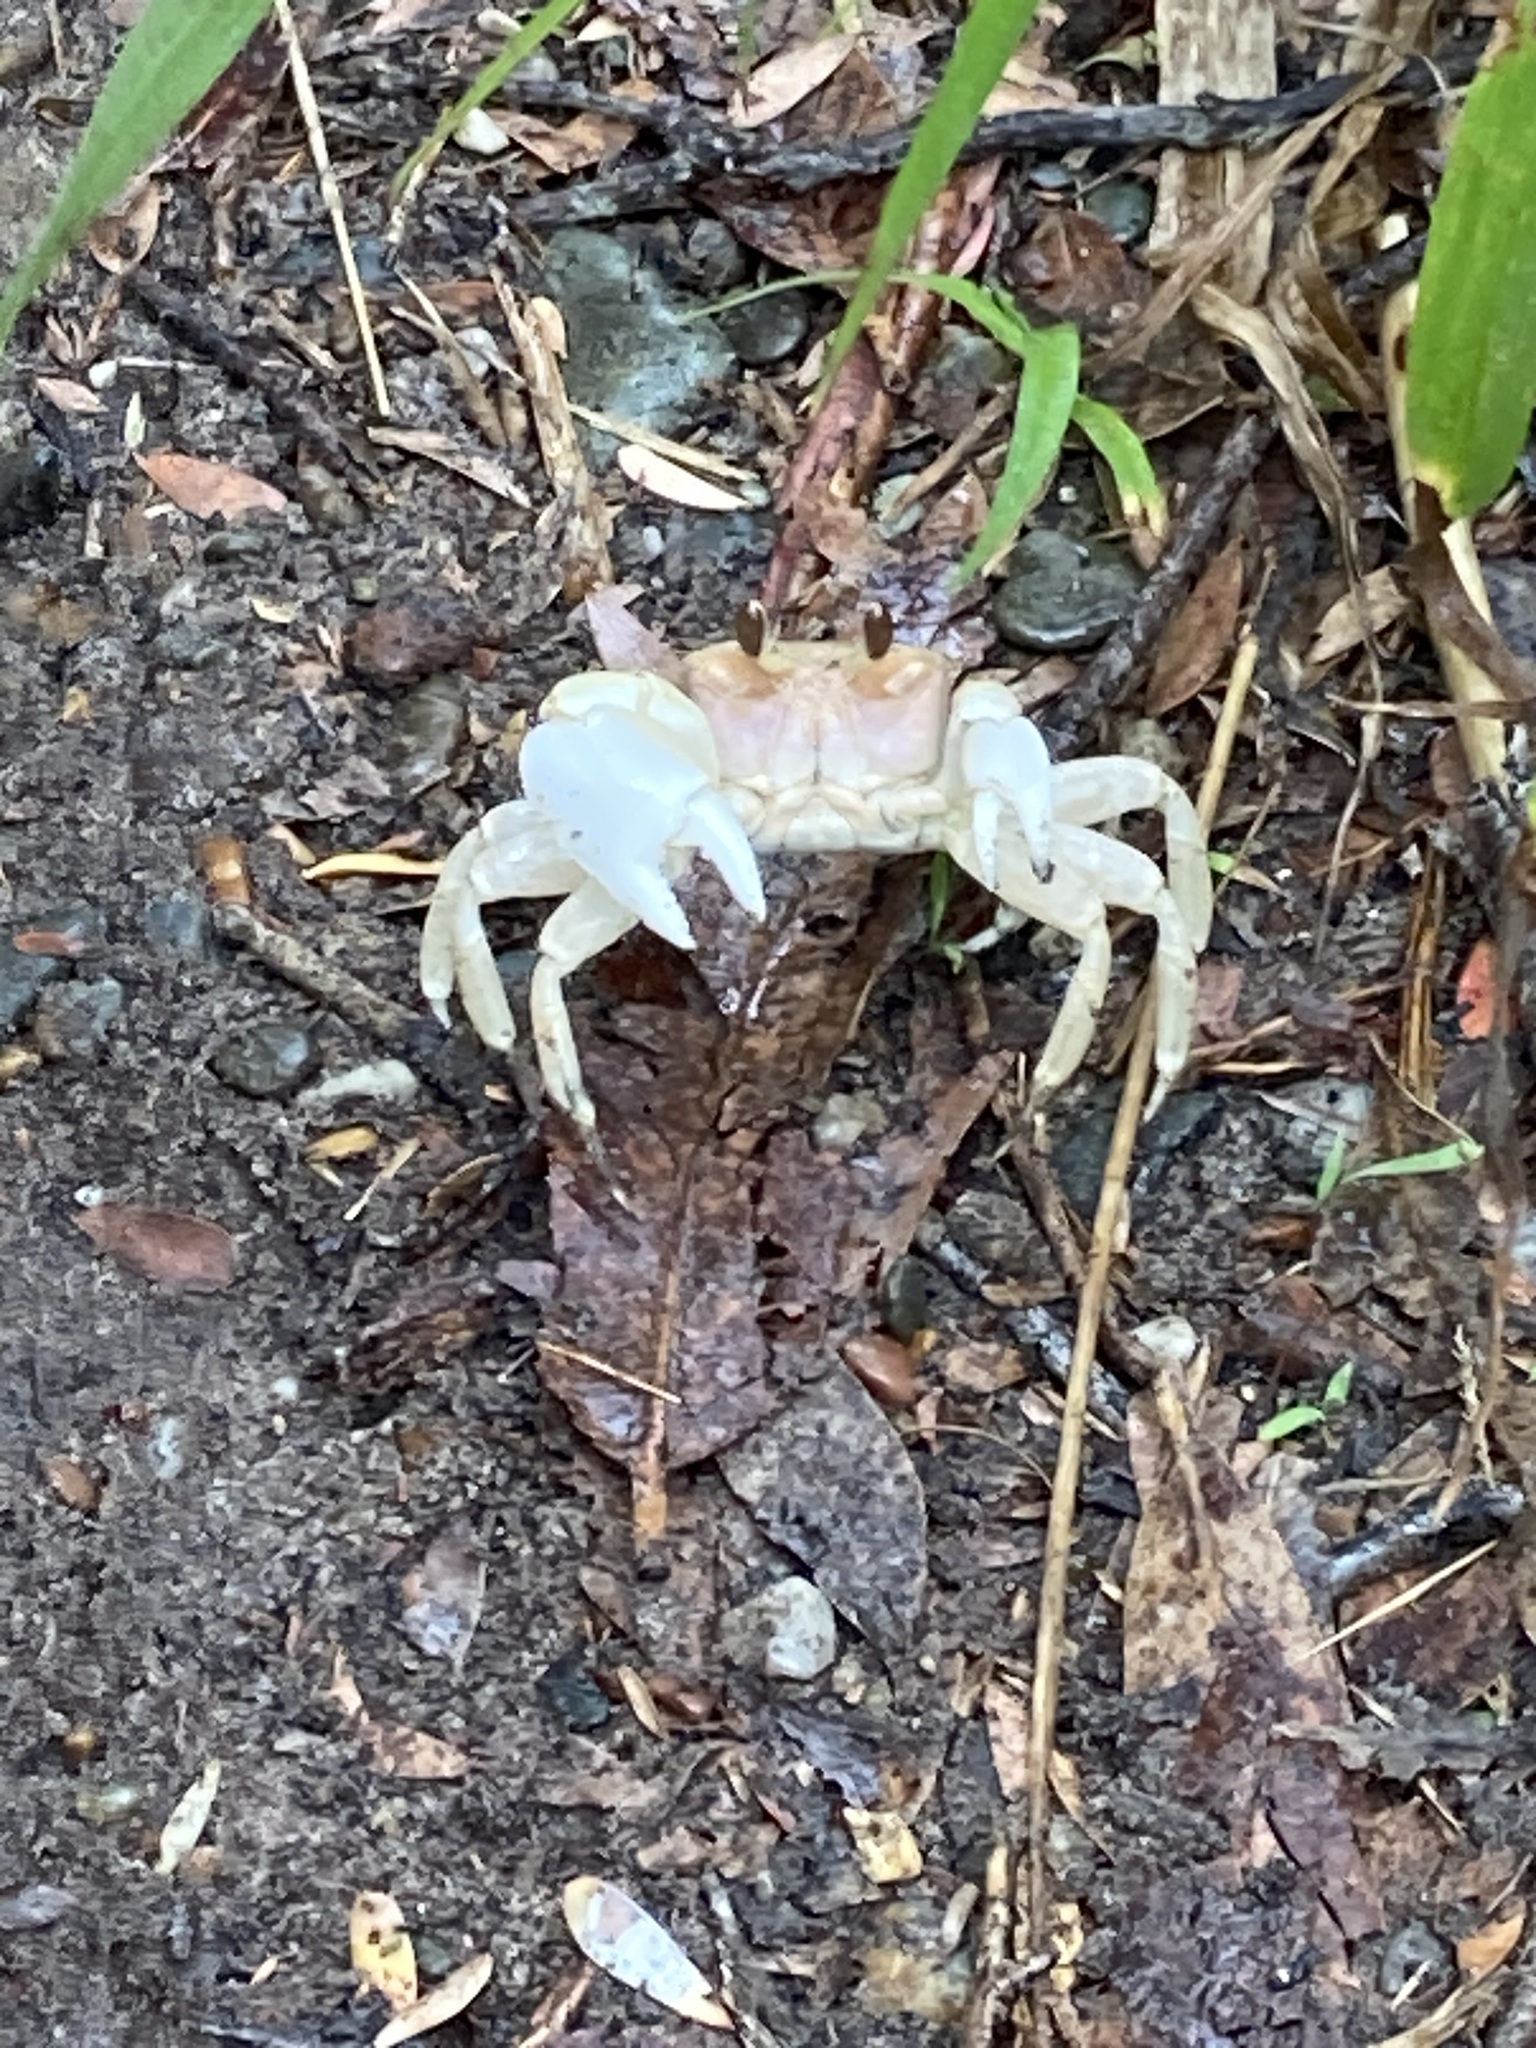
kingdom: Animalia
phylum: Arthropoda
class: Malacostraca
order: Decapoda
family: Ocypodidae
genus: Ocypode
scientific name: Ocypode cordimana
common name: Smooth-eyed ghost crab
